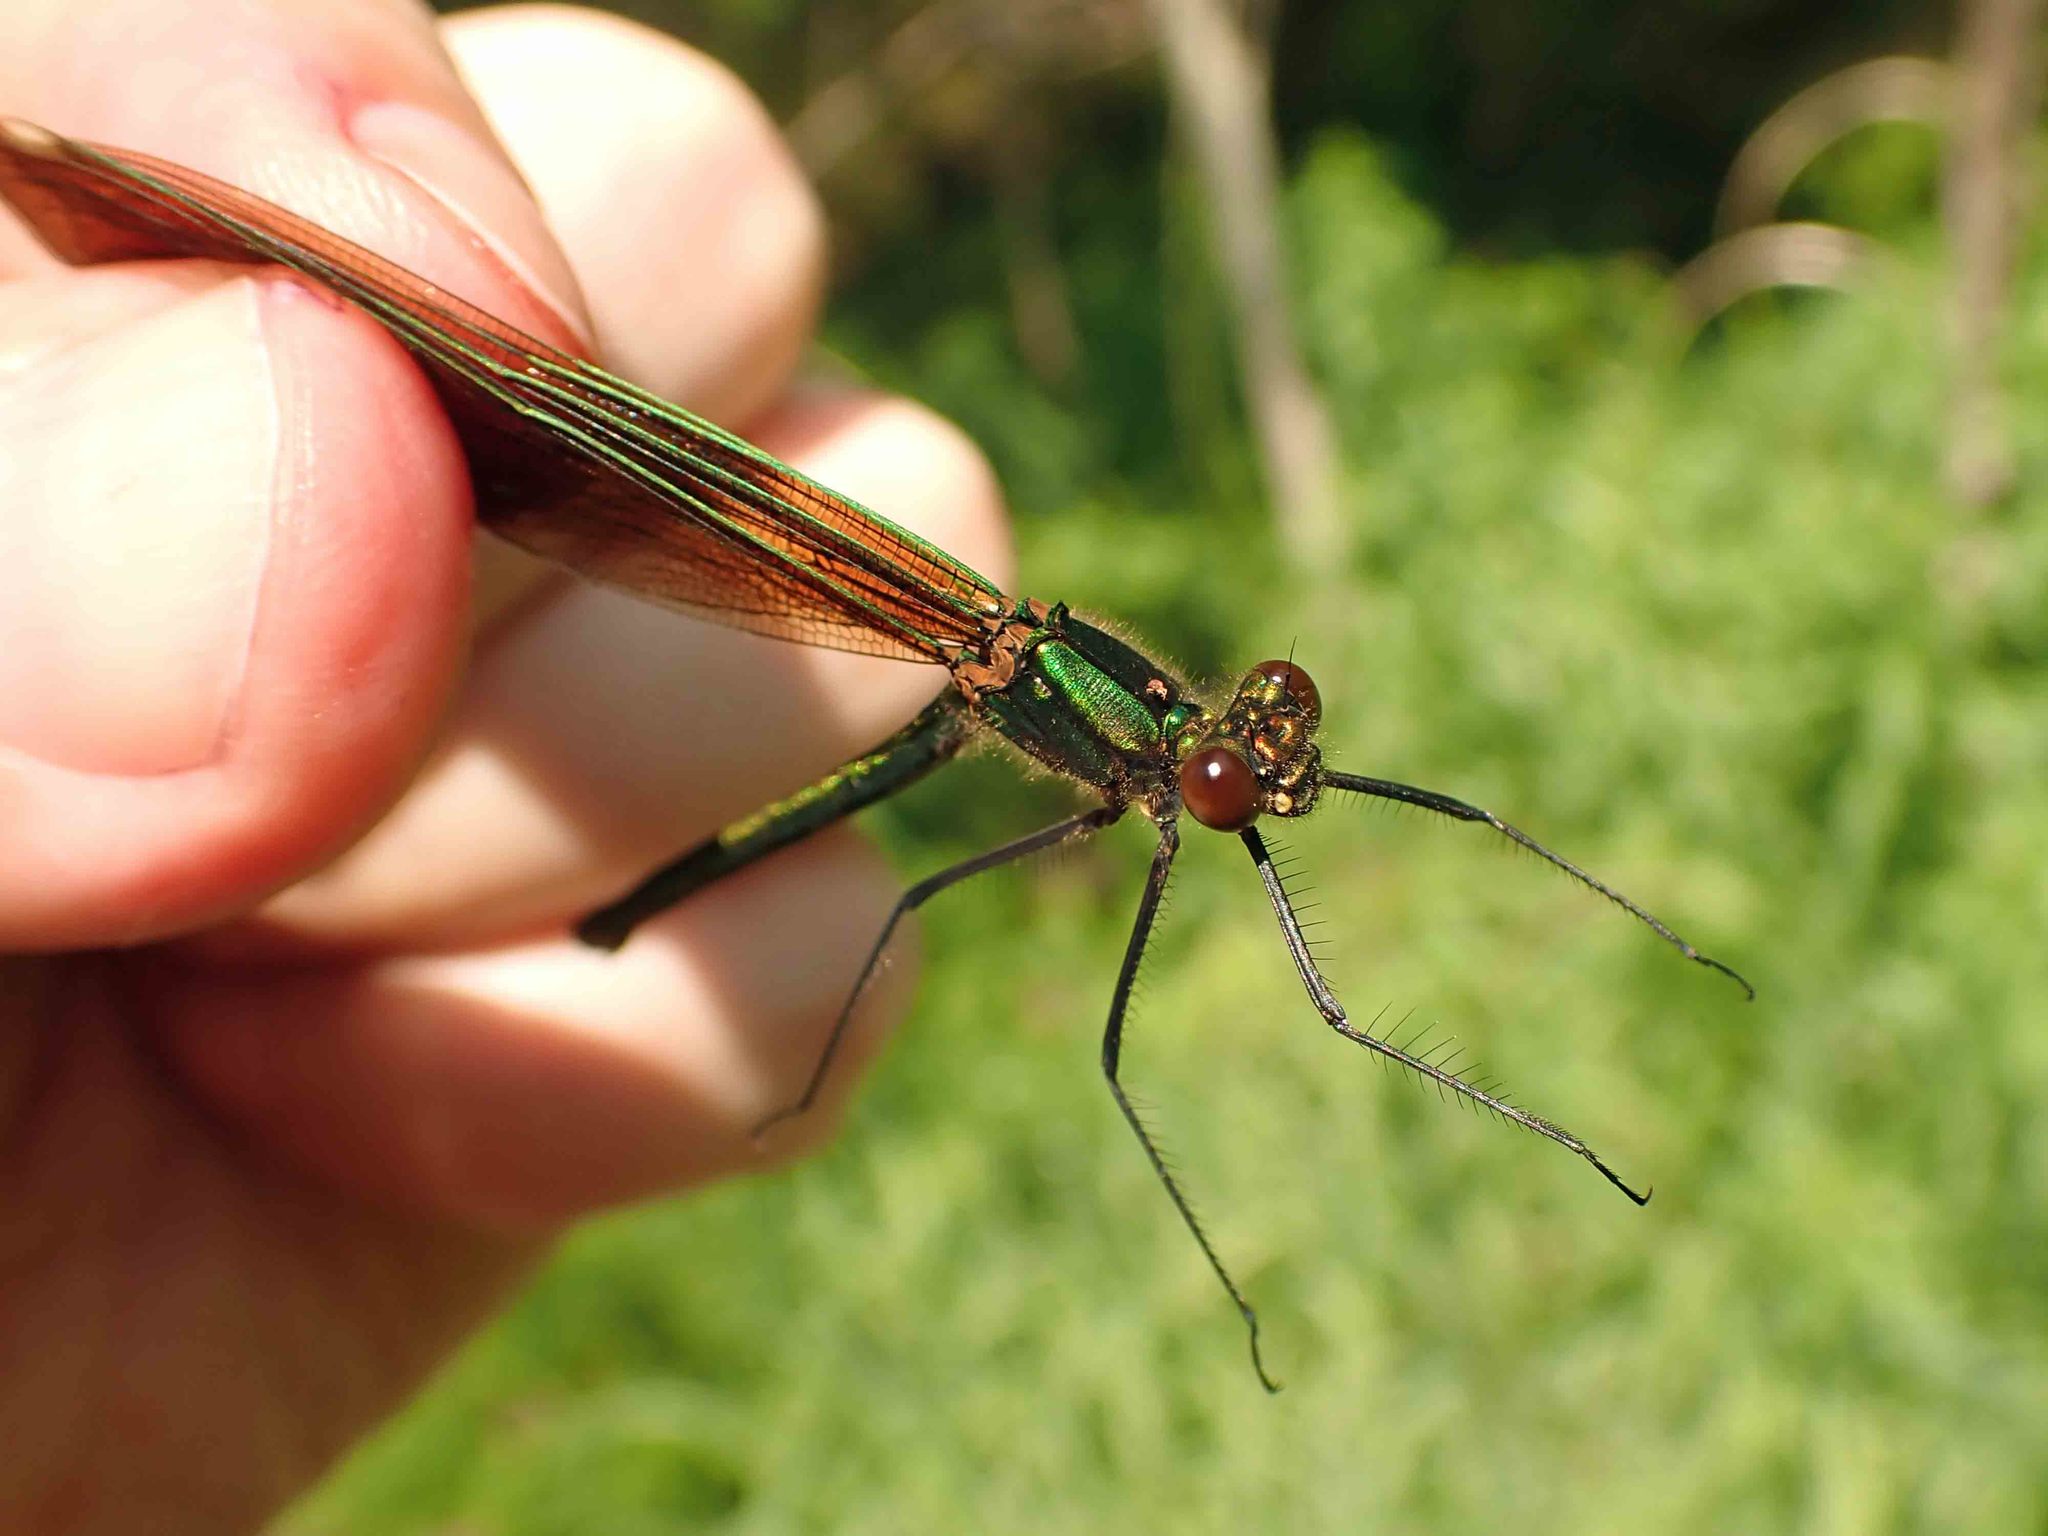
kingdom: Animalia
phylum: Arthropoda
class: Insecta
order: Odonata
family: Calopterygidae
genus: Calopteryx
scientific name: Calopteryx aequabilis
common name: River jewelwing
